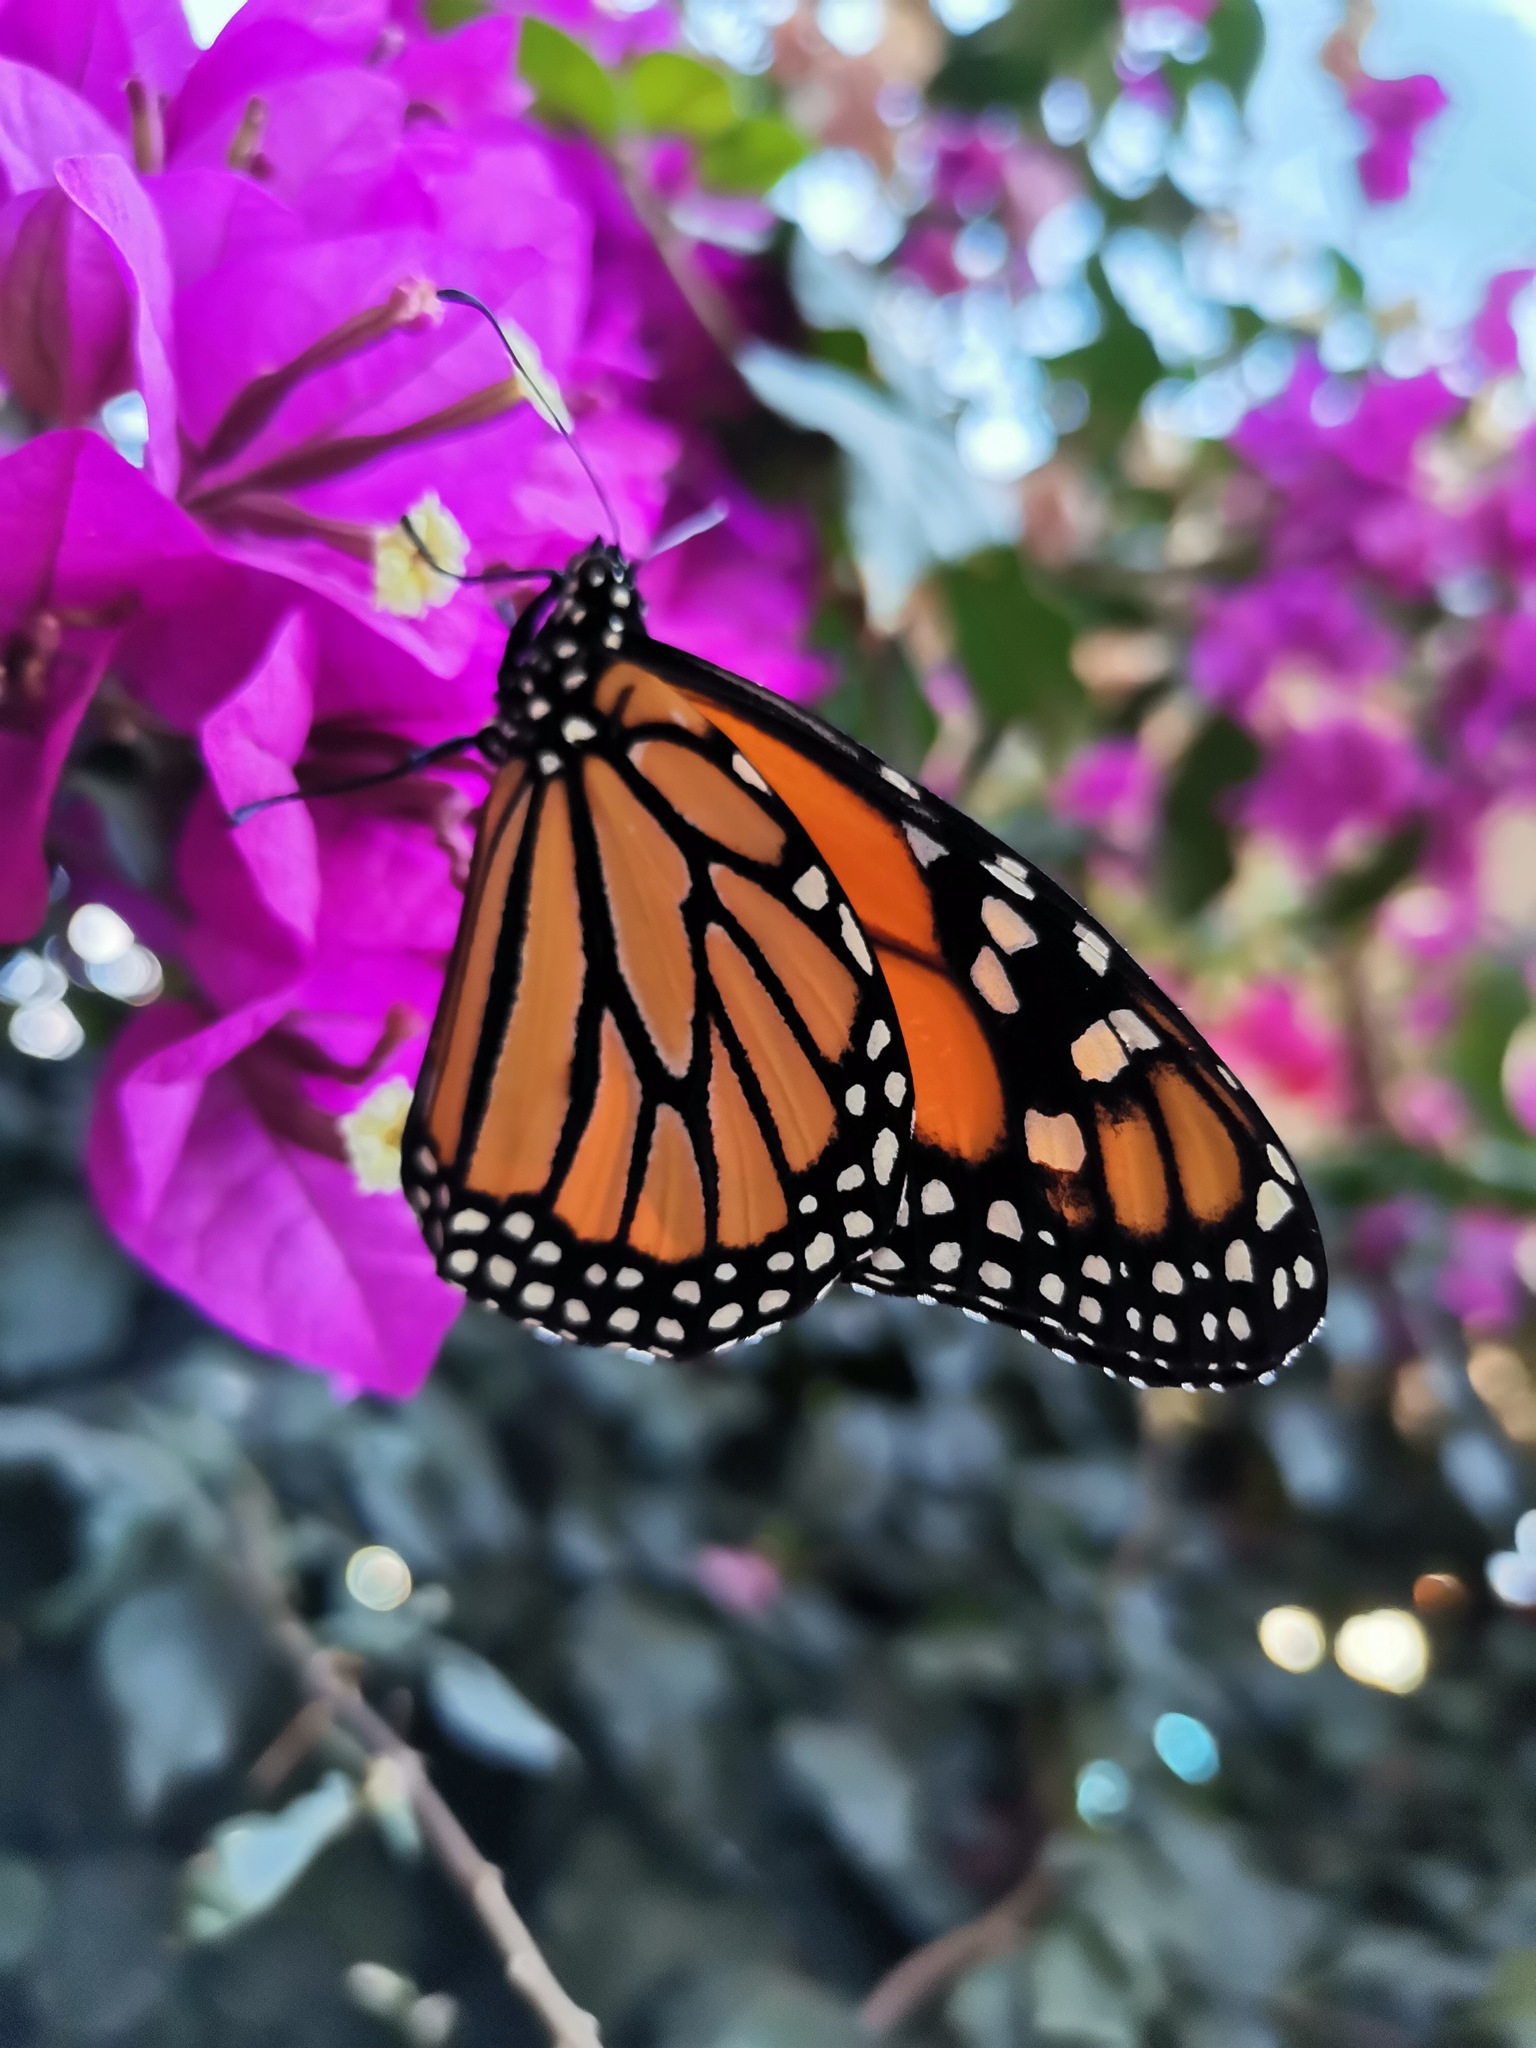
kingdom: Animalia
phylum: Arthropoda
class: Insecta
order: Lepidoptera
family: Nymphalidae
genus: Danaus
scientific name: Danaus plexippus
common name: Monarch
